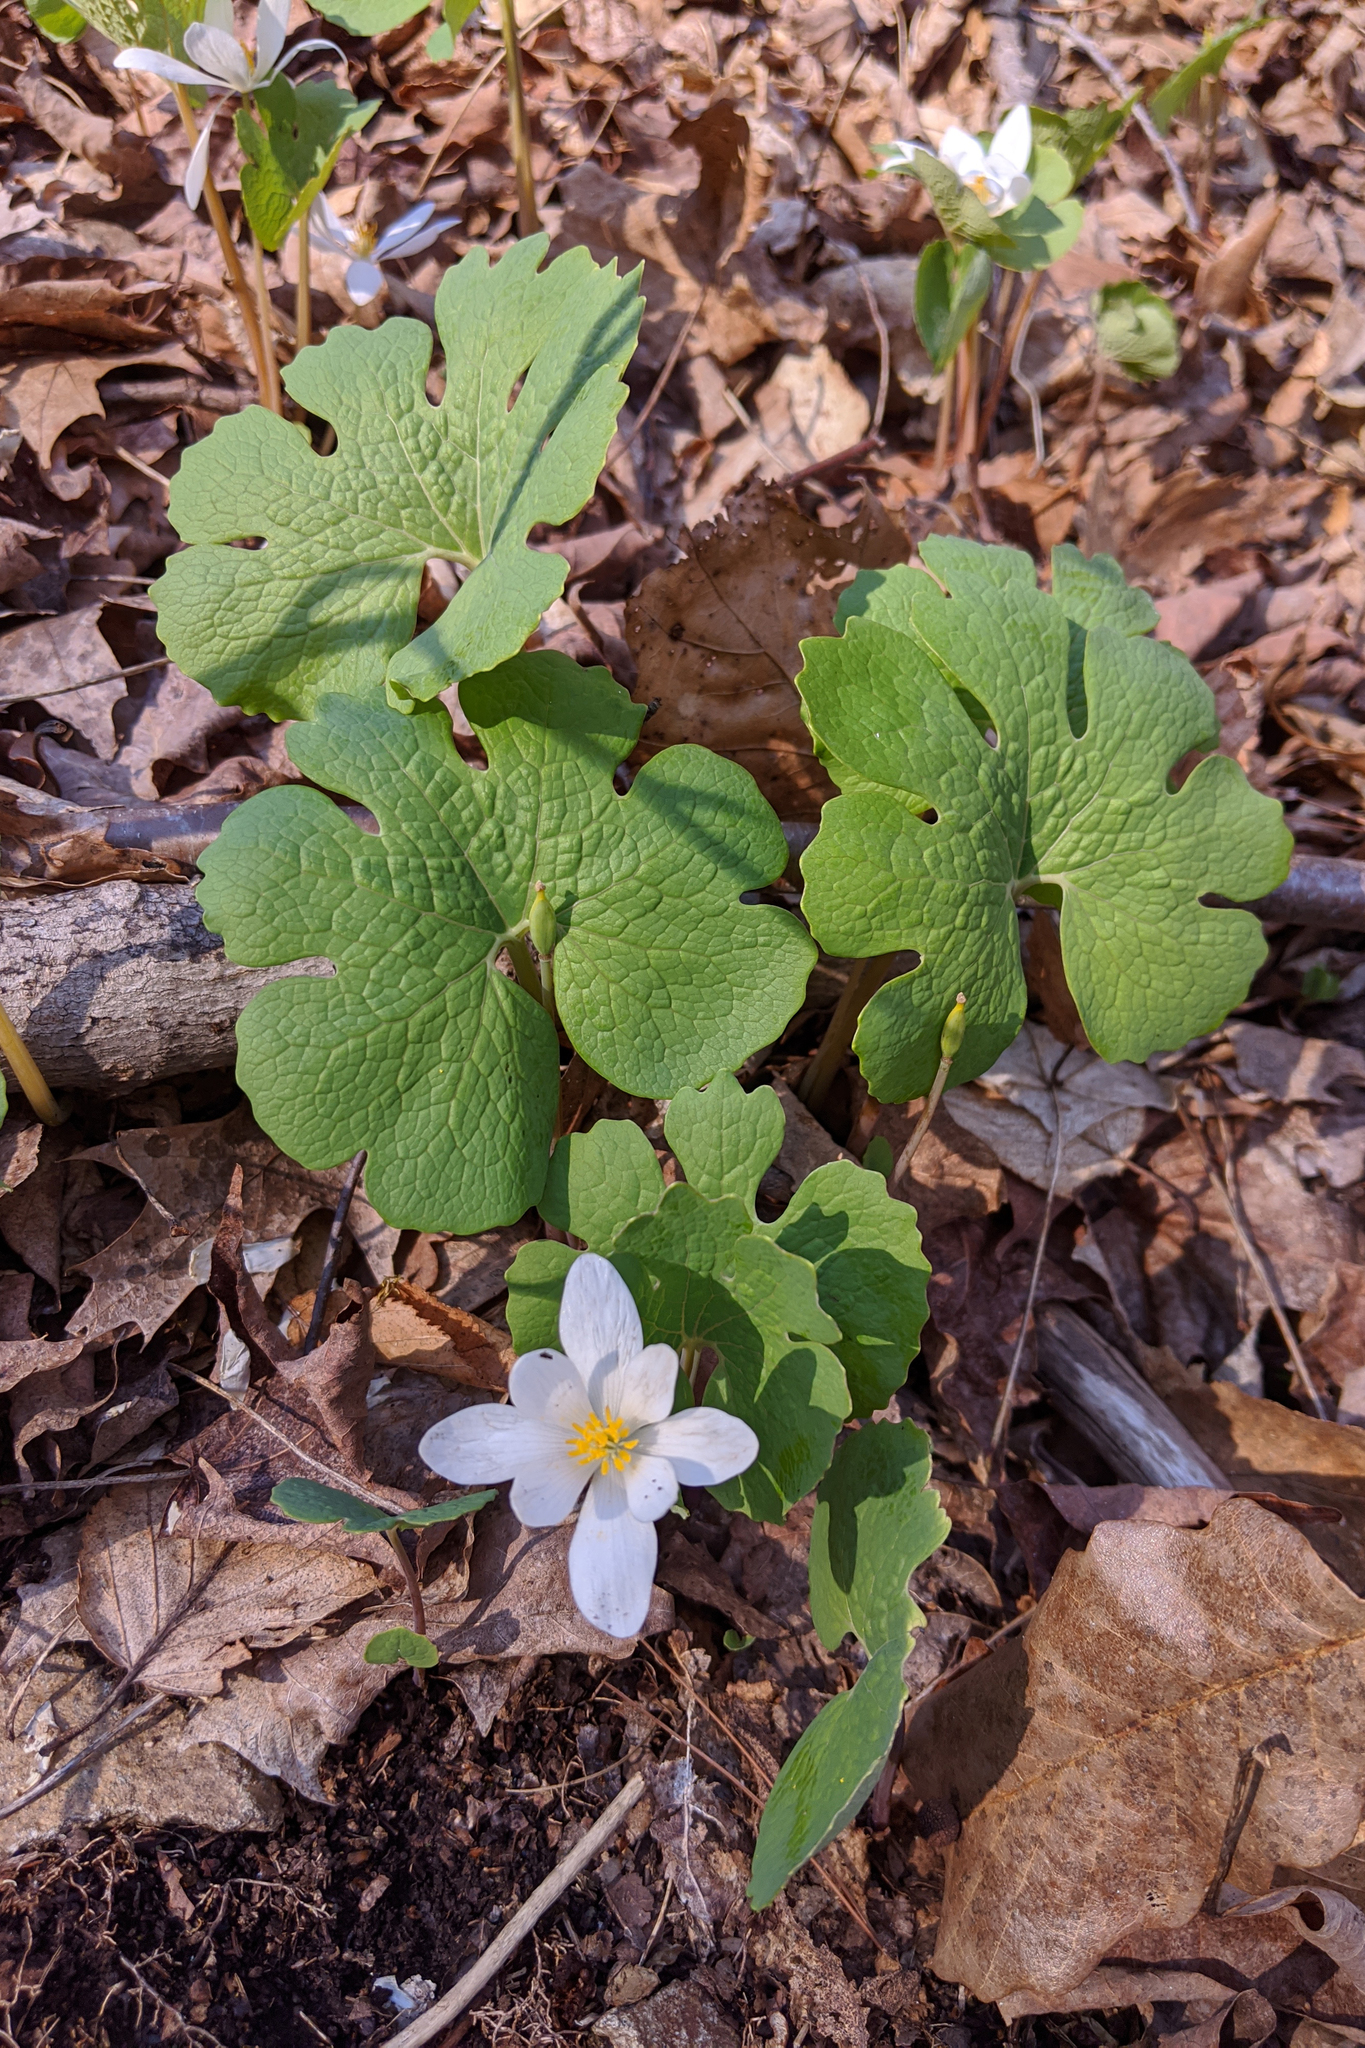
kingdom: Plantae
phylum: Tracheophyta
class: Magnoliopsida
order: Ranunculales
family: Papaveraceae
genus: Sanguinaria
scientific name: Sanguinaria canadensis
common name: Bloodroot
